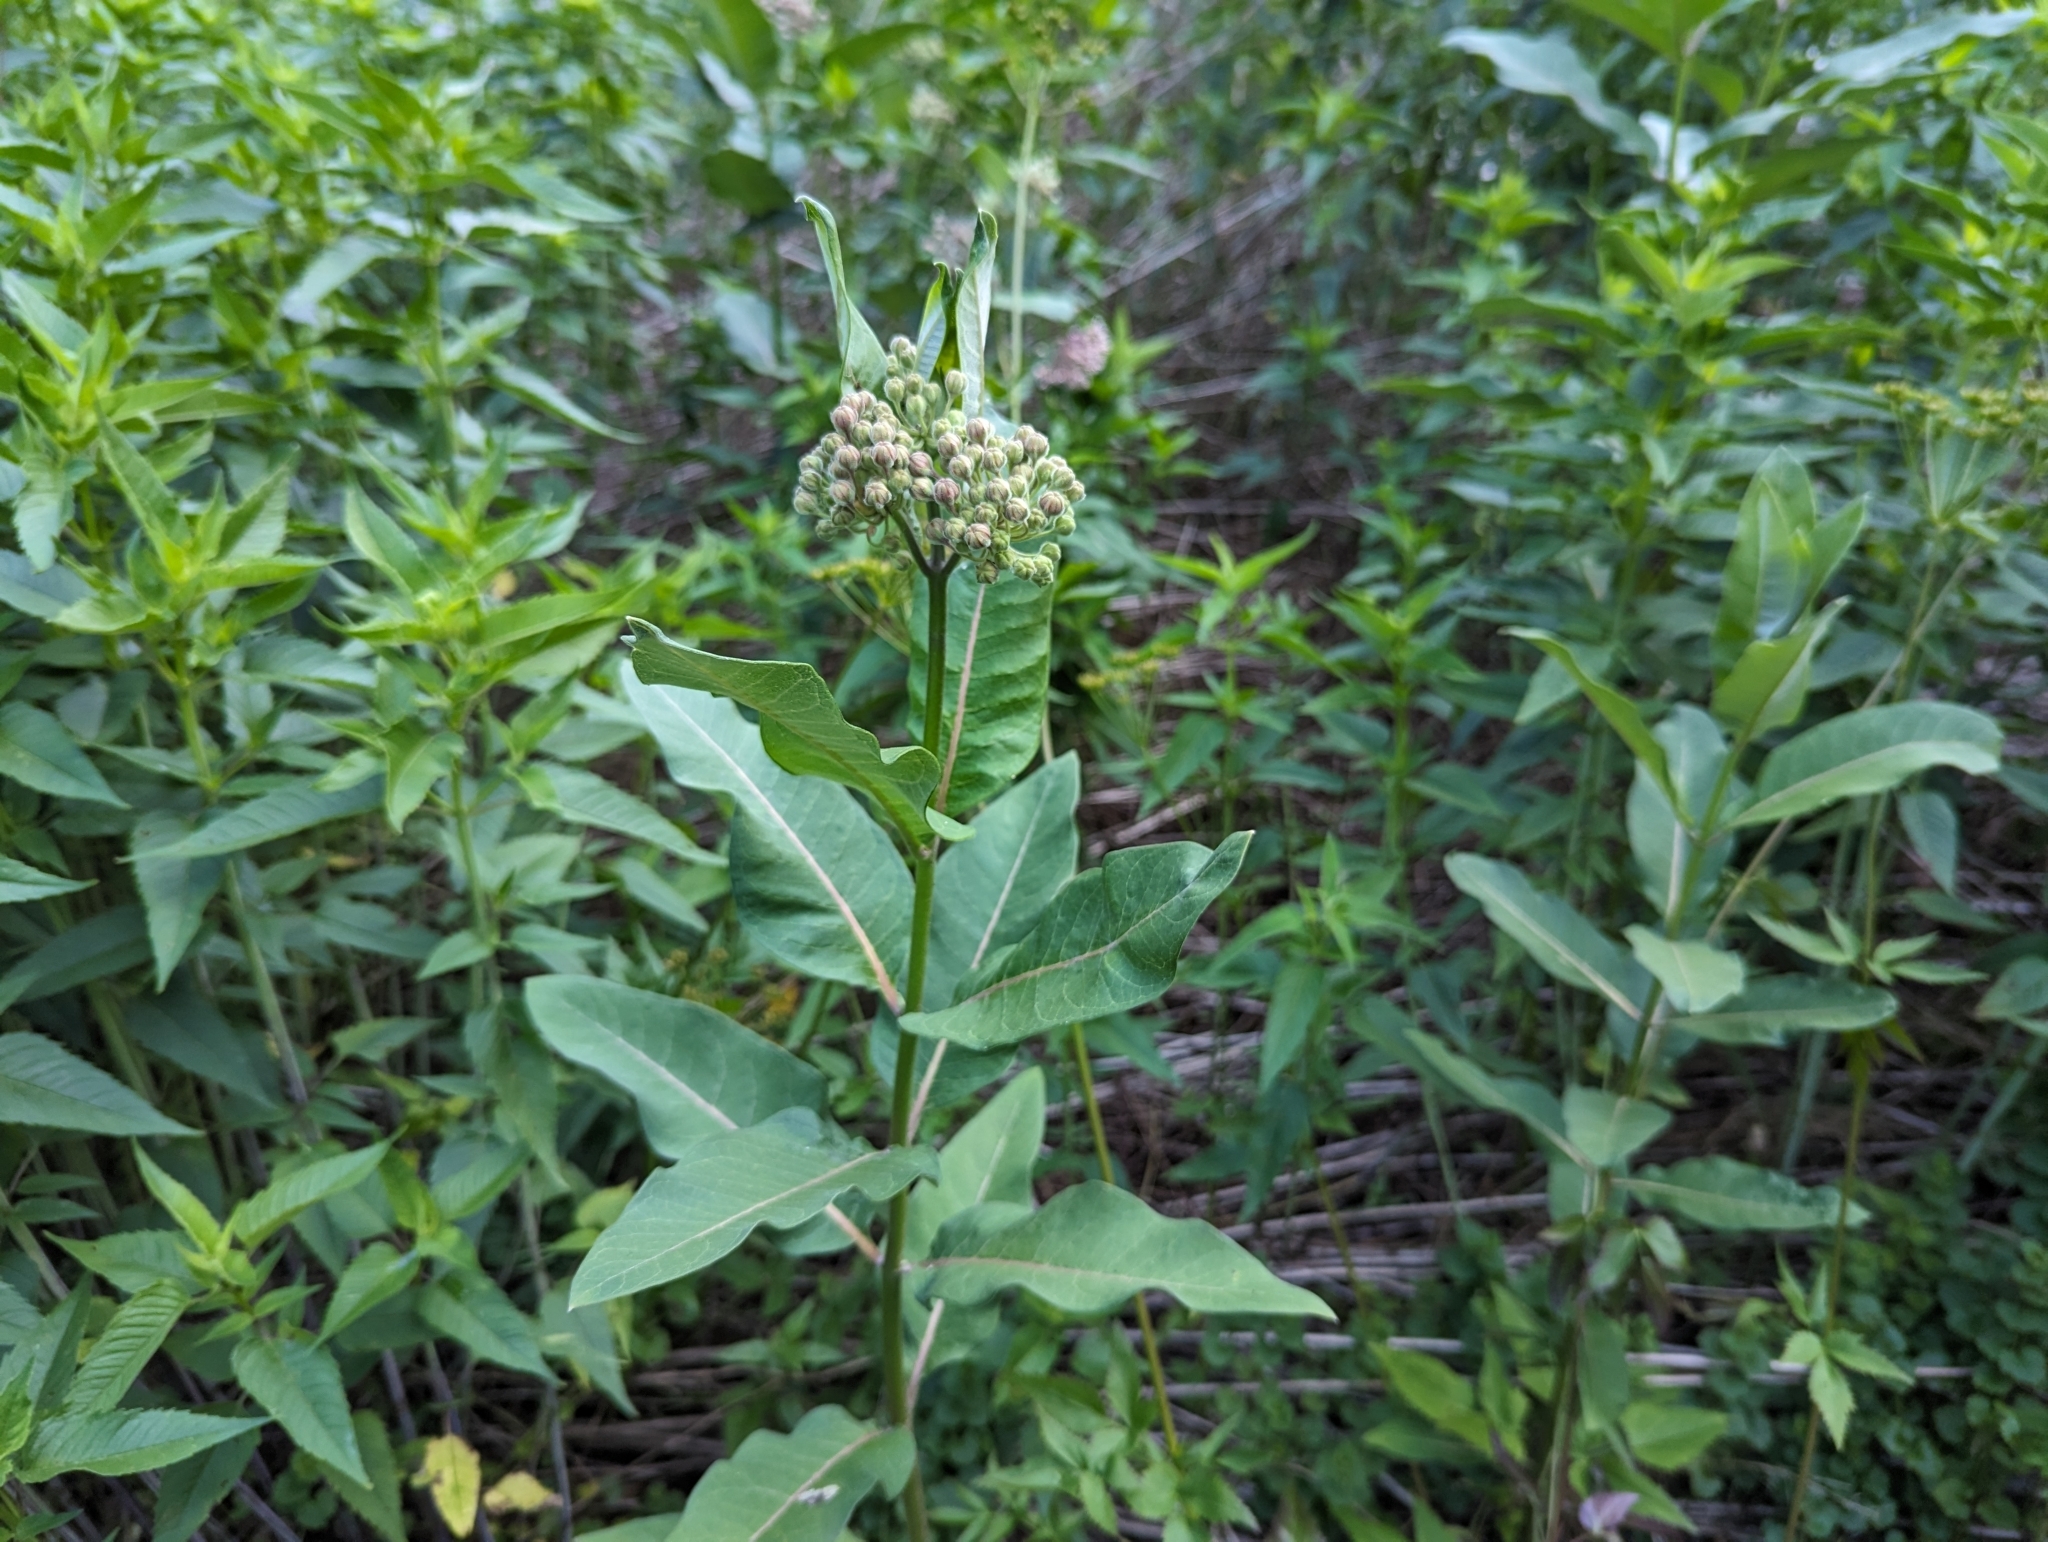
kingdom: Plantae
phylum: Tracheophyta
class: Magnoliopsida
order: Gentianales
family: Apocynaceae
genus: Asclepias
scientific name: Asclepias syriaca
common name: Common milkweed
